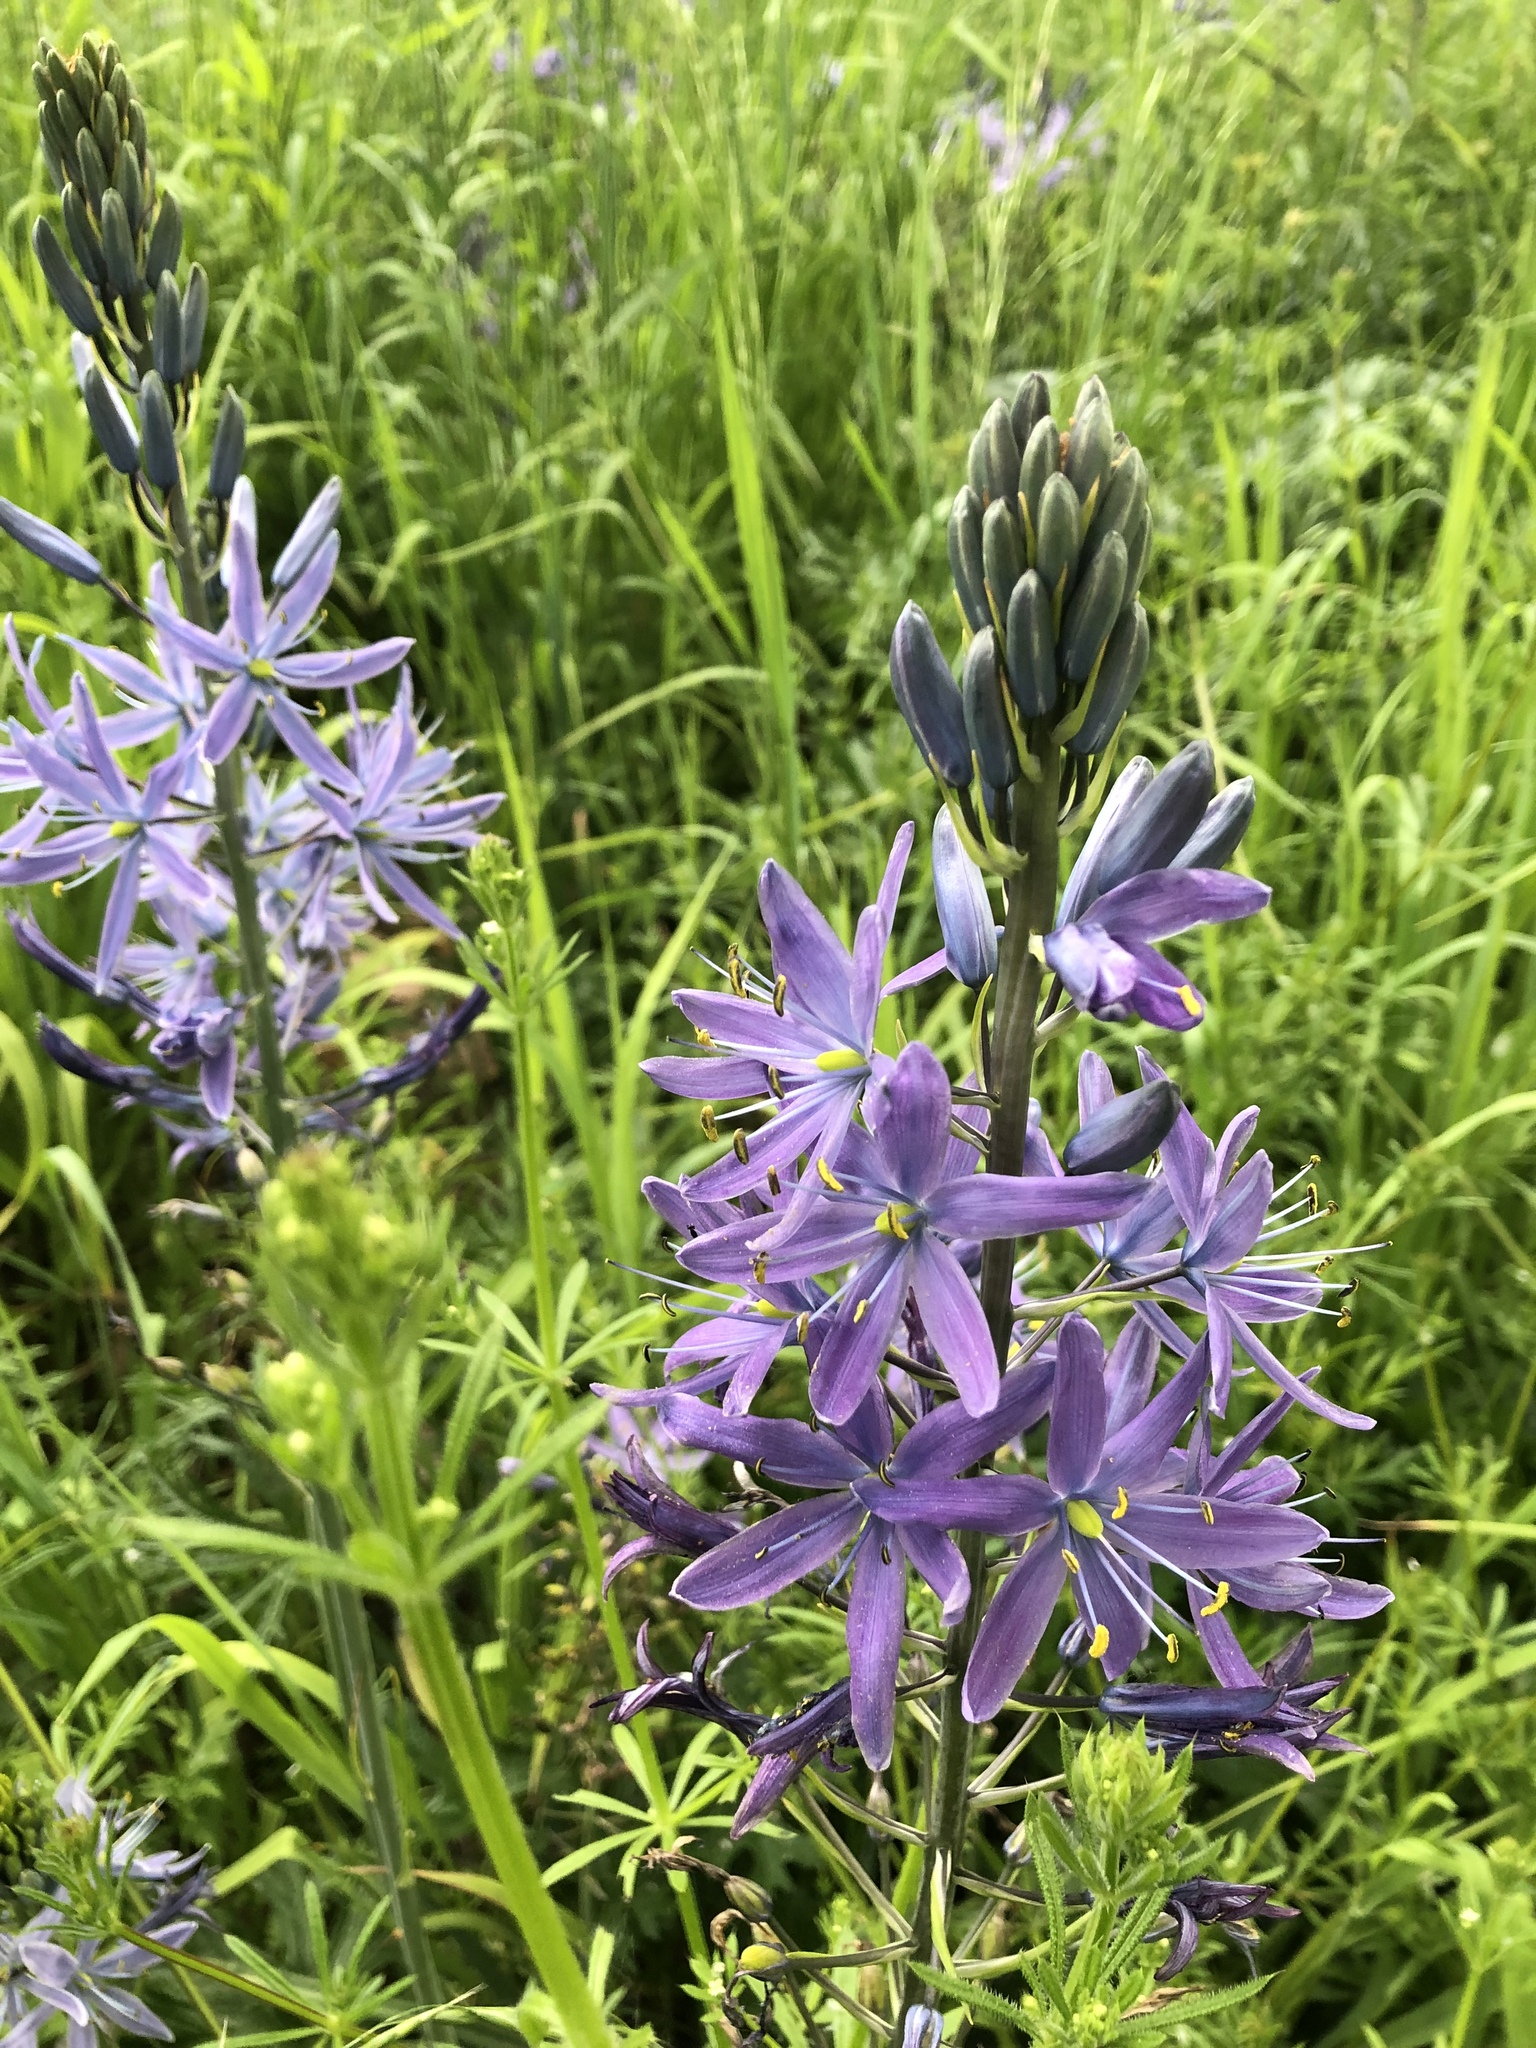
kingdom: Plantae
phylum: Tracheophyta
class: Liliopsida
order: Asparagales
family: Asparagaceae
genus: Camassia
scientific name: Camassia leichtlinii
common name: Leichtlin's camas
